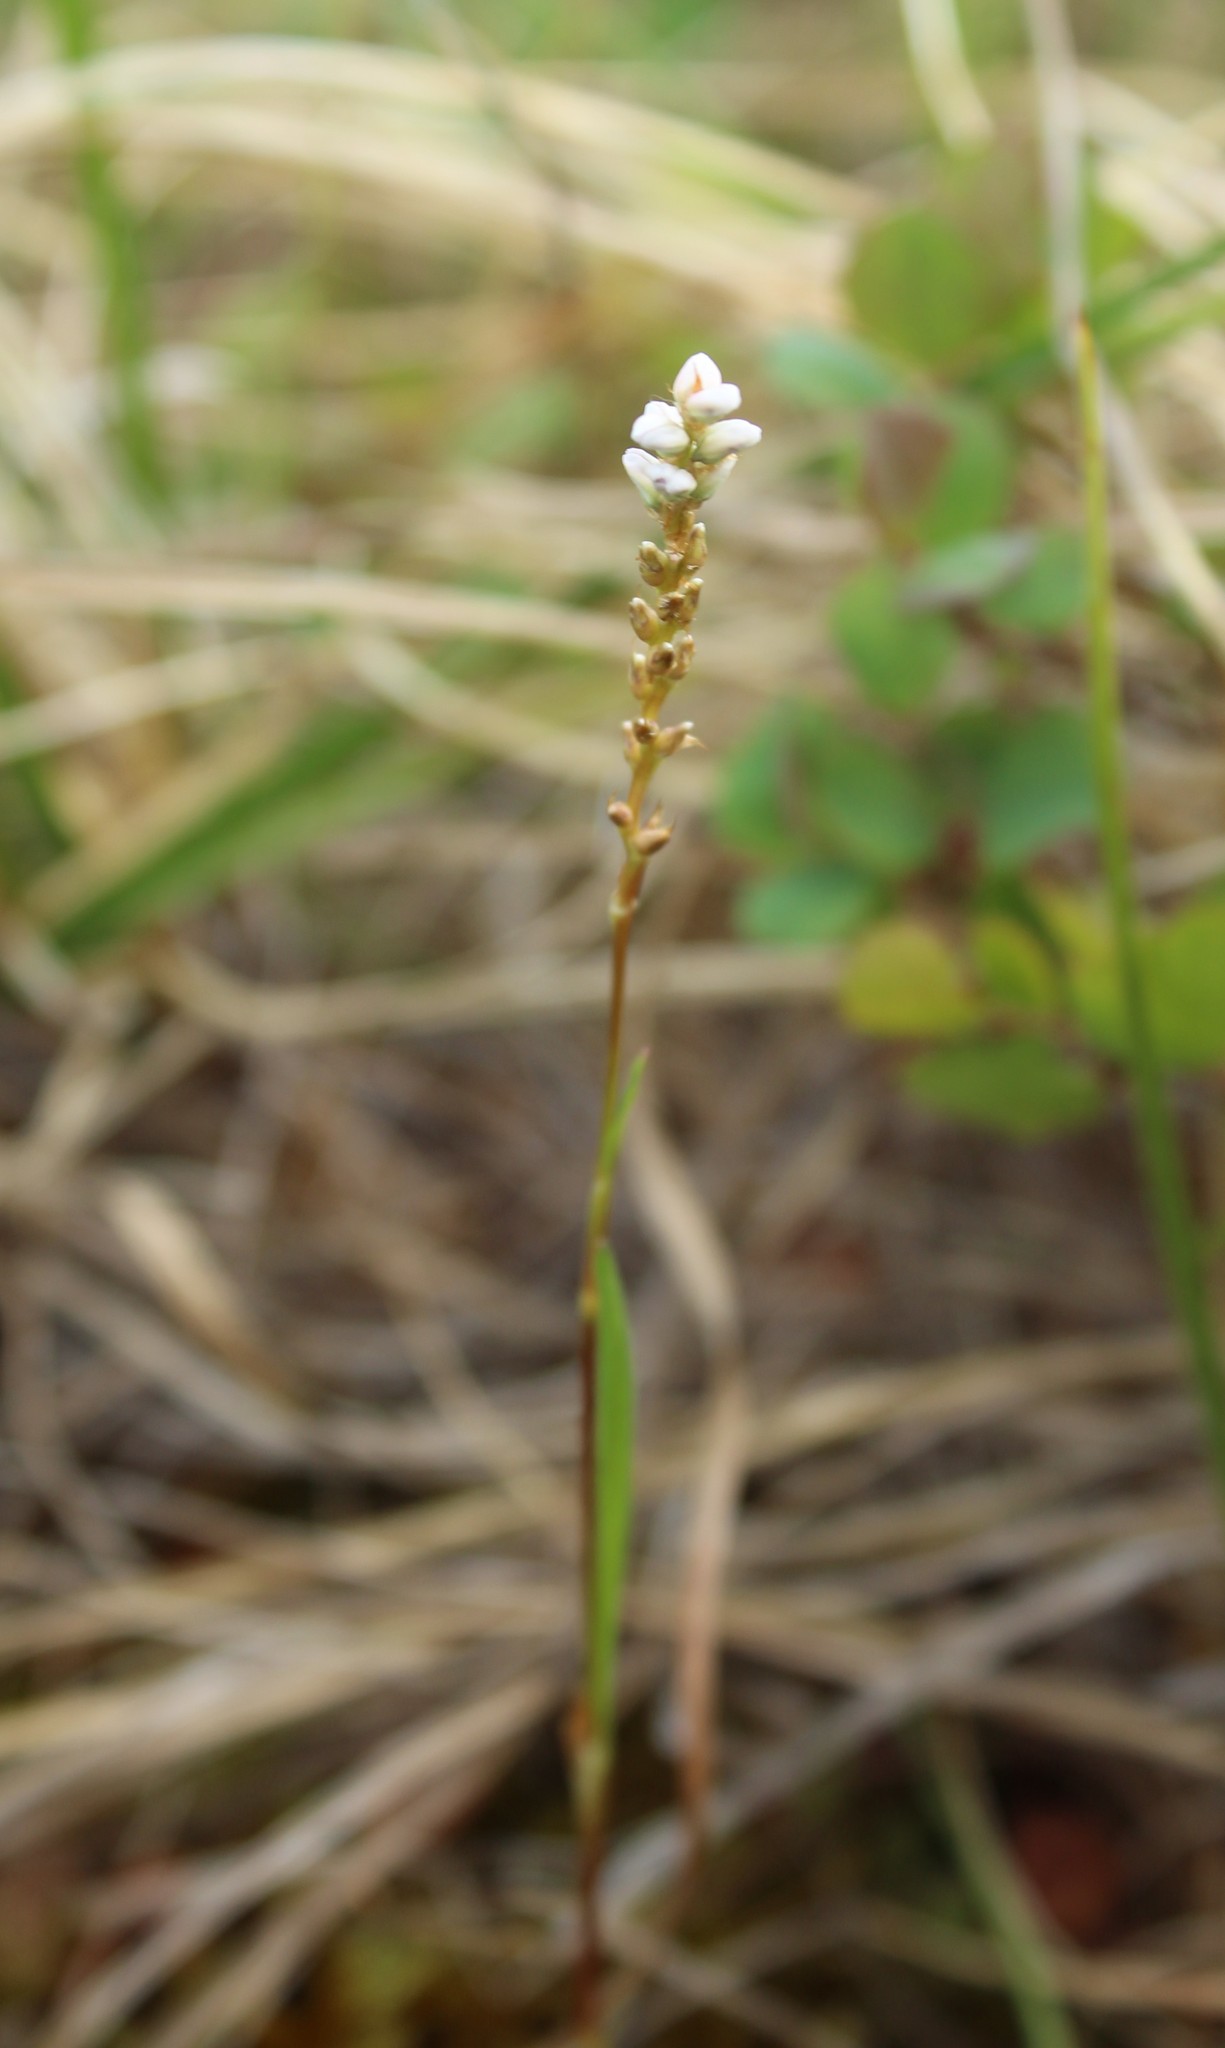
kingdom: Plantae
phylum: Tracheophyta
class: Magnoliopsida
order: Caryophyllales
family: Polygonaceae
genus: Bistorta
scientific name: Bistorta vivipara
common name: Alpine bistort
